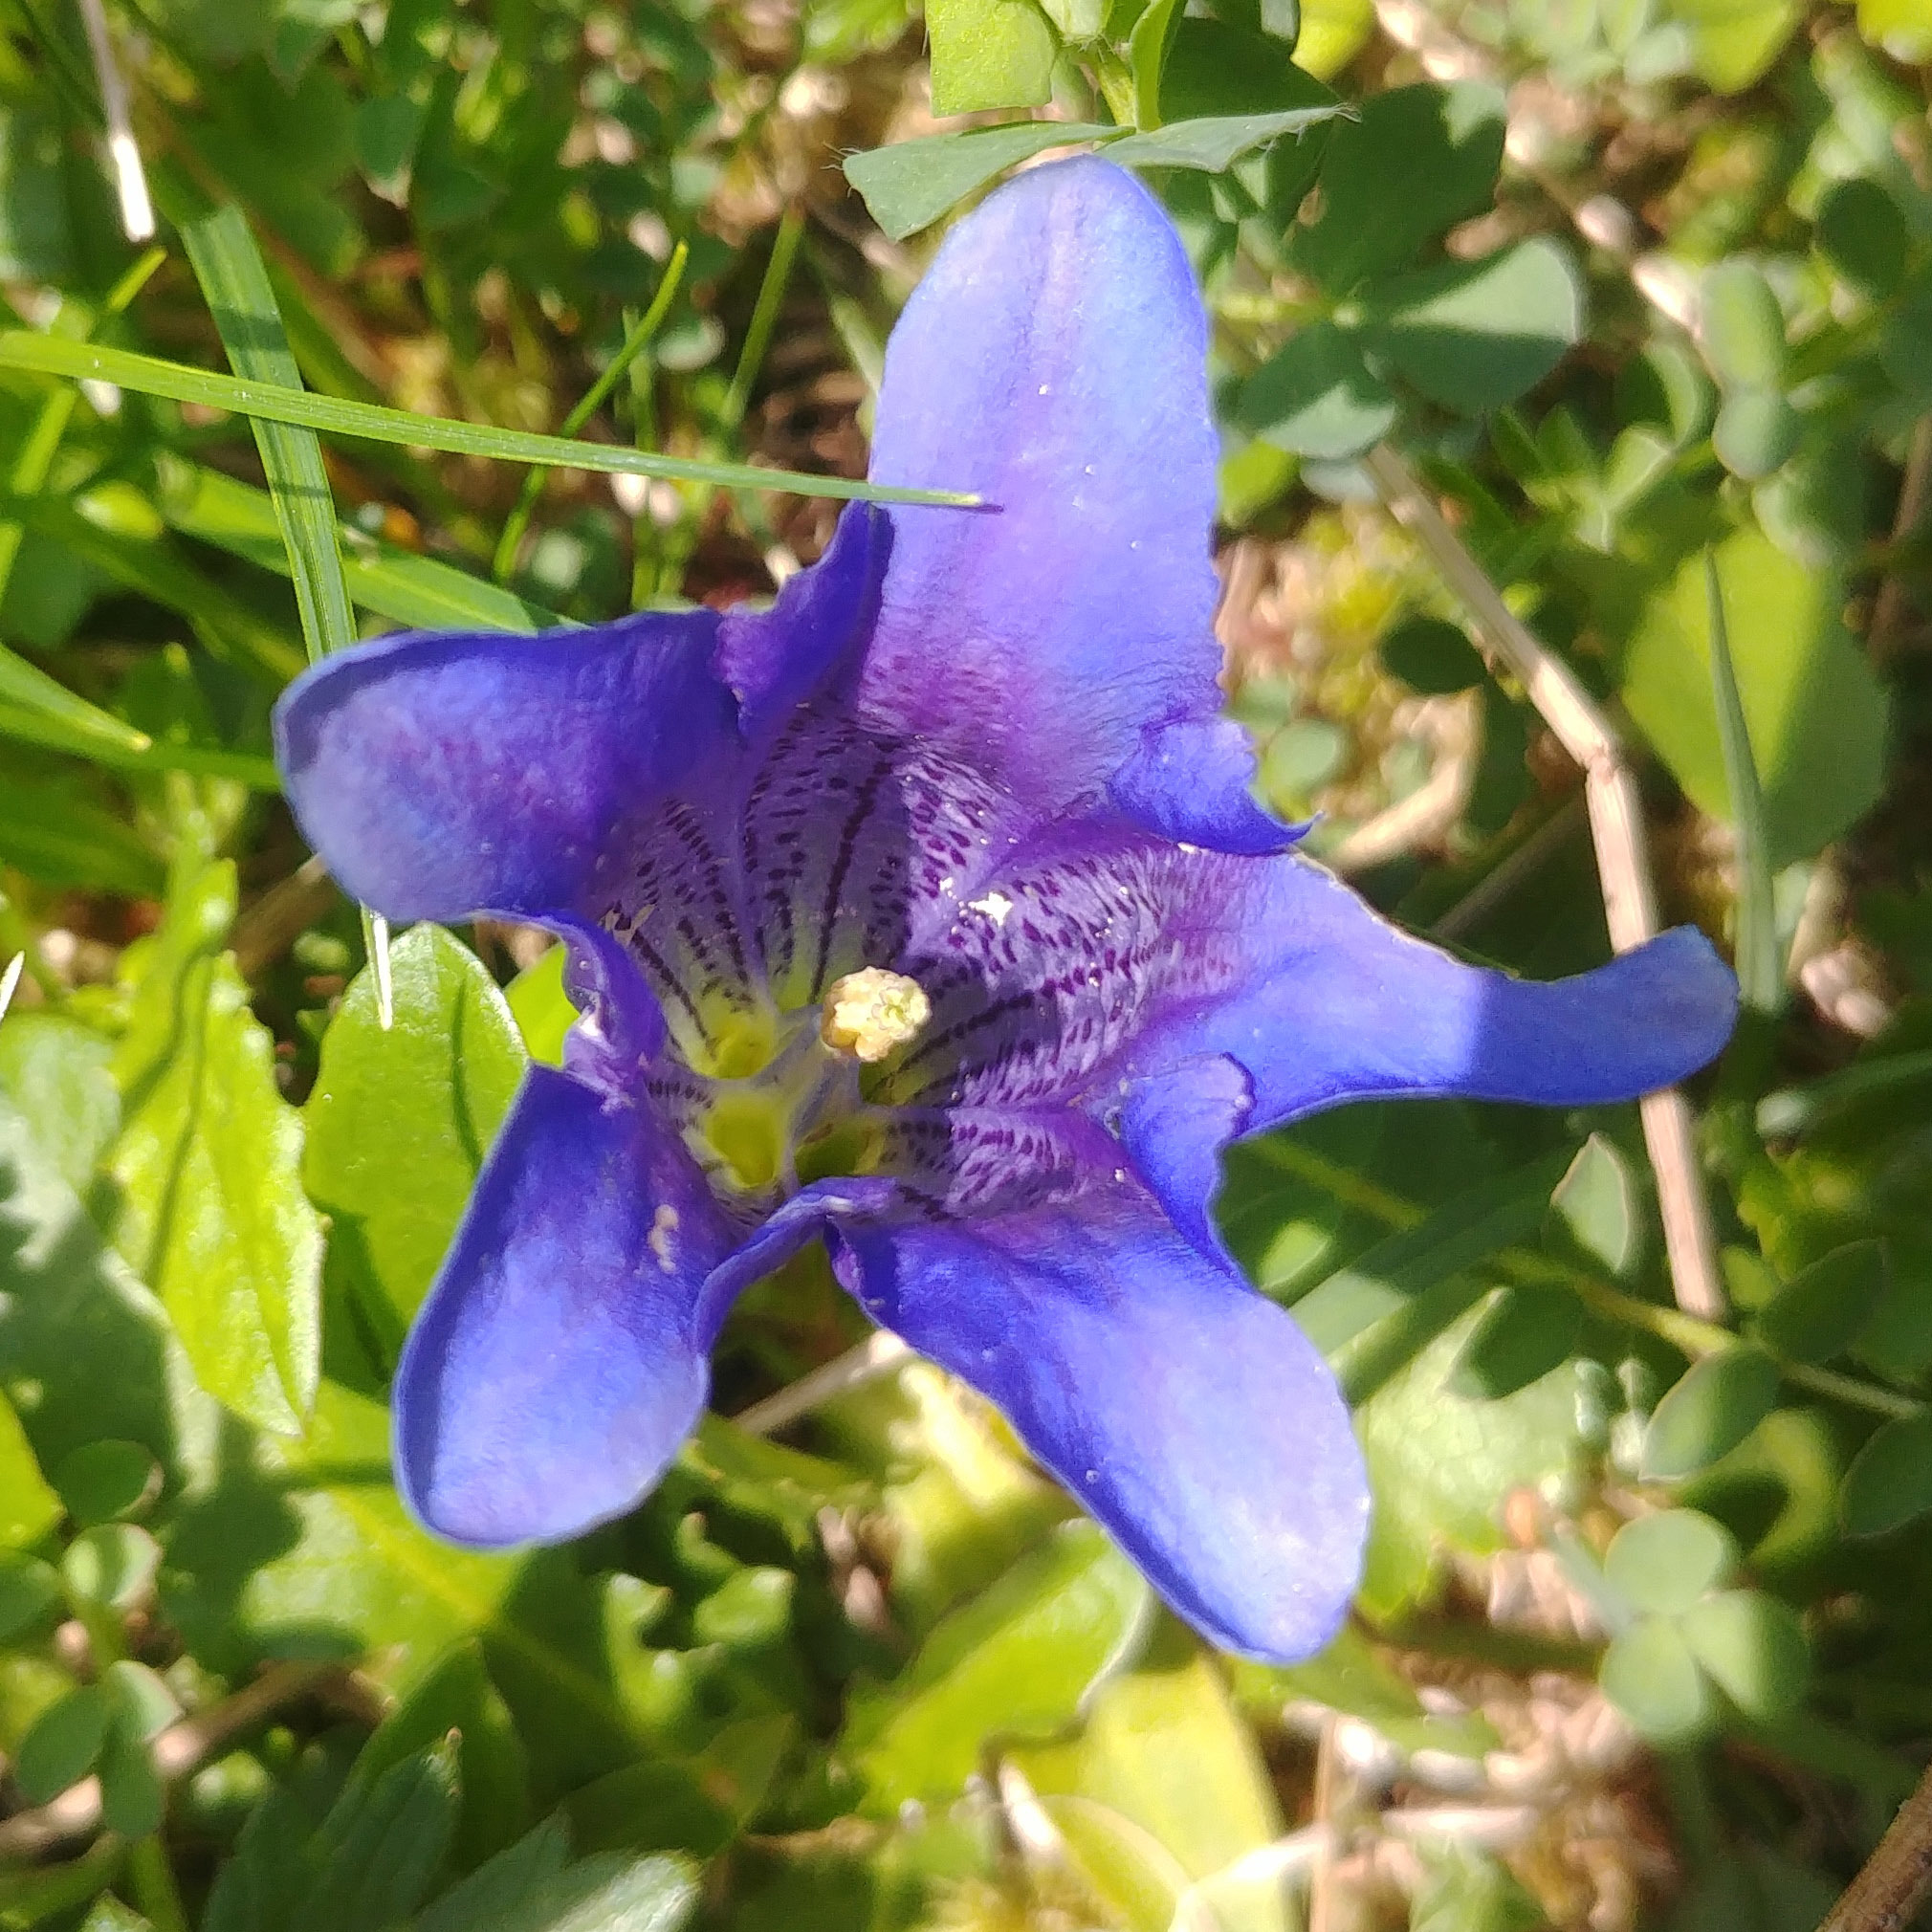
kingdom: Plantae
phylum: Tracheophyta
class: Magnoliopsida
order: Gentianales
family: Gentianaceae
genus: Gentiana
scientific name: Gentiana clusii
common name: Trumpet gentian
